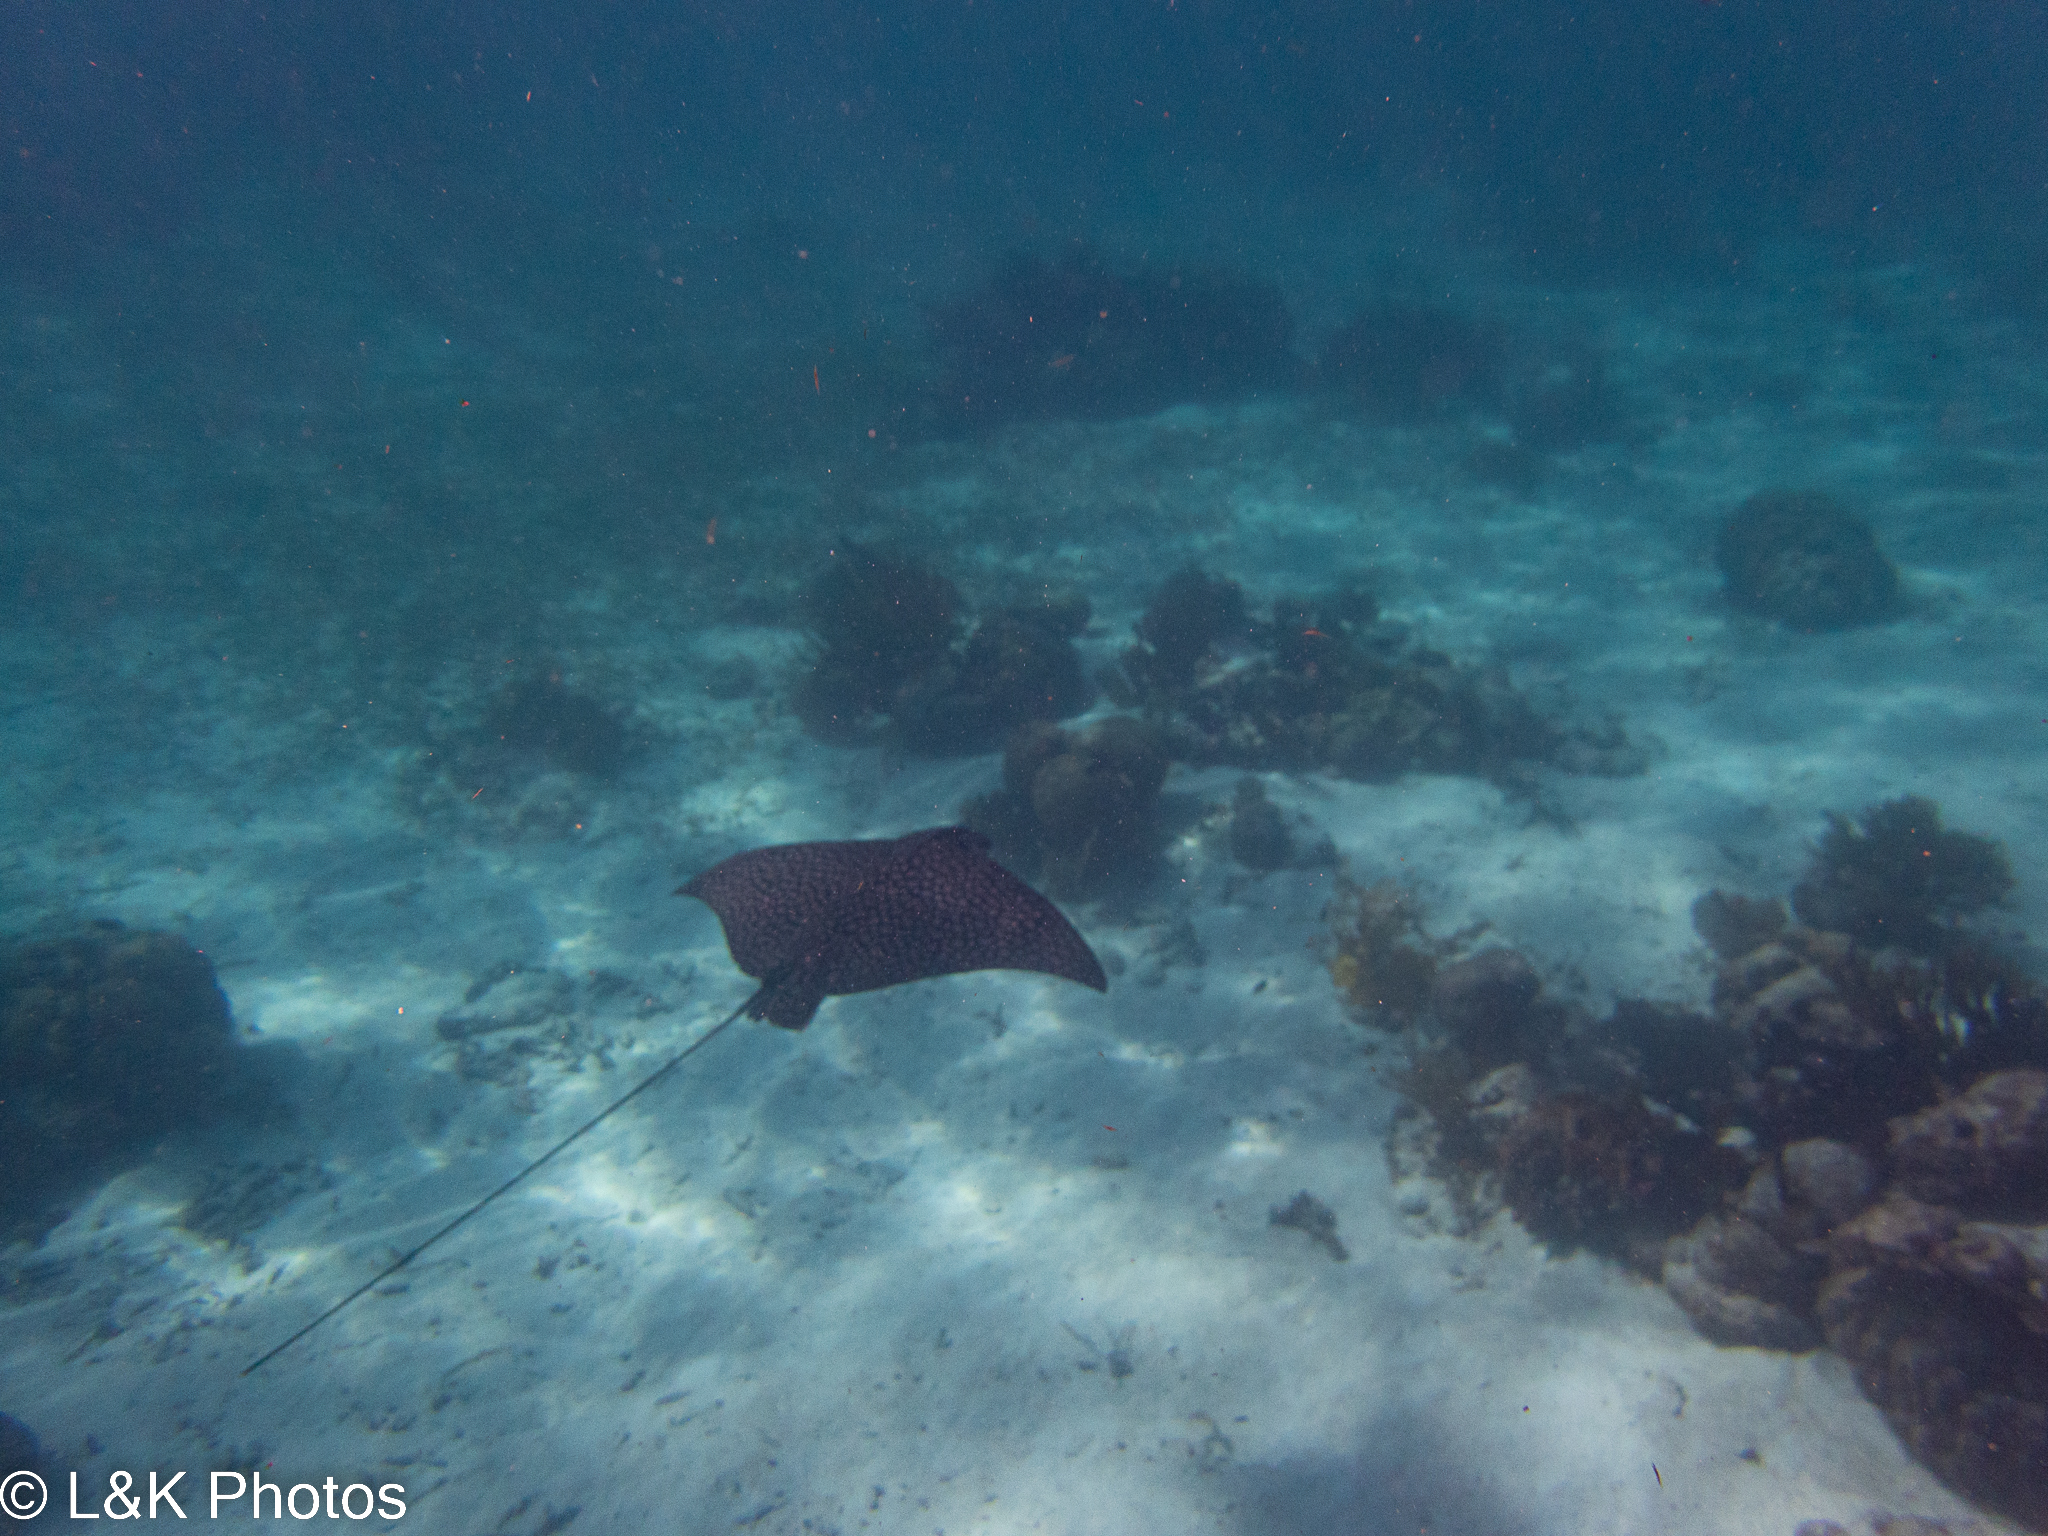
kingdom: Animalia
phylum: Chordata
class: Elasmobranchii
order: Myliobatiformes
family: Myliobatidae
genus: Aetobatus
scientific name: Aetobatus narinari
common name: Spotted eagle ray
